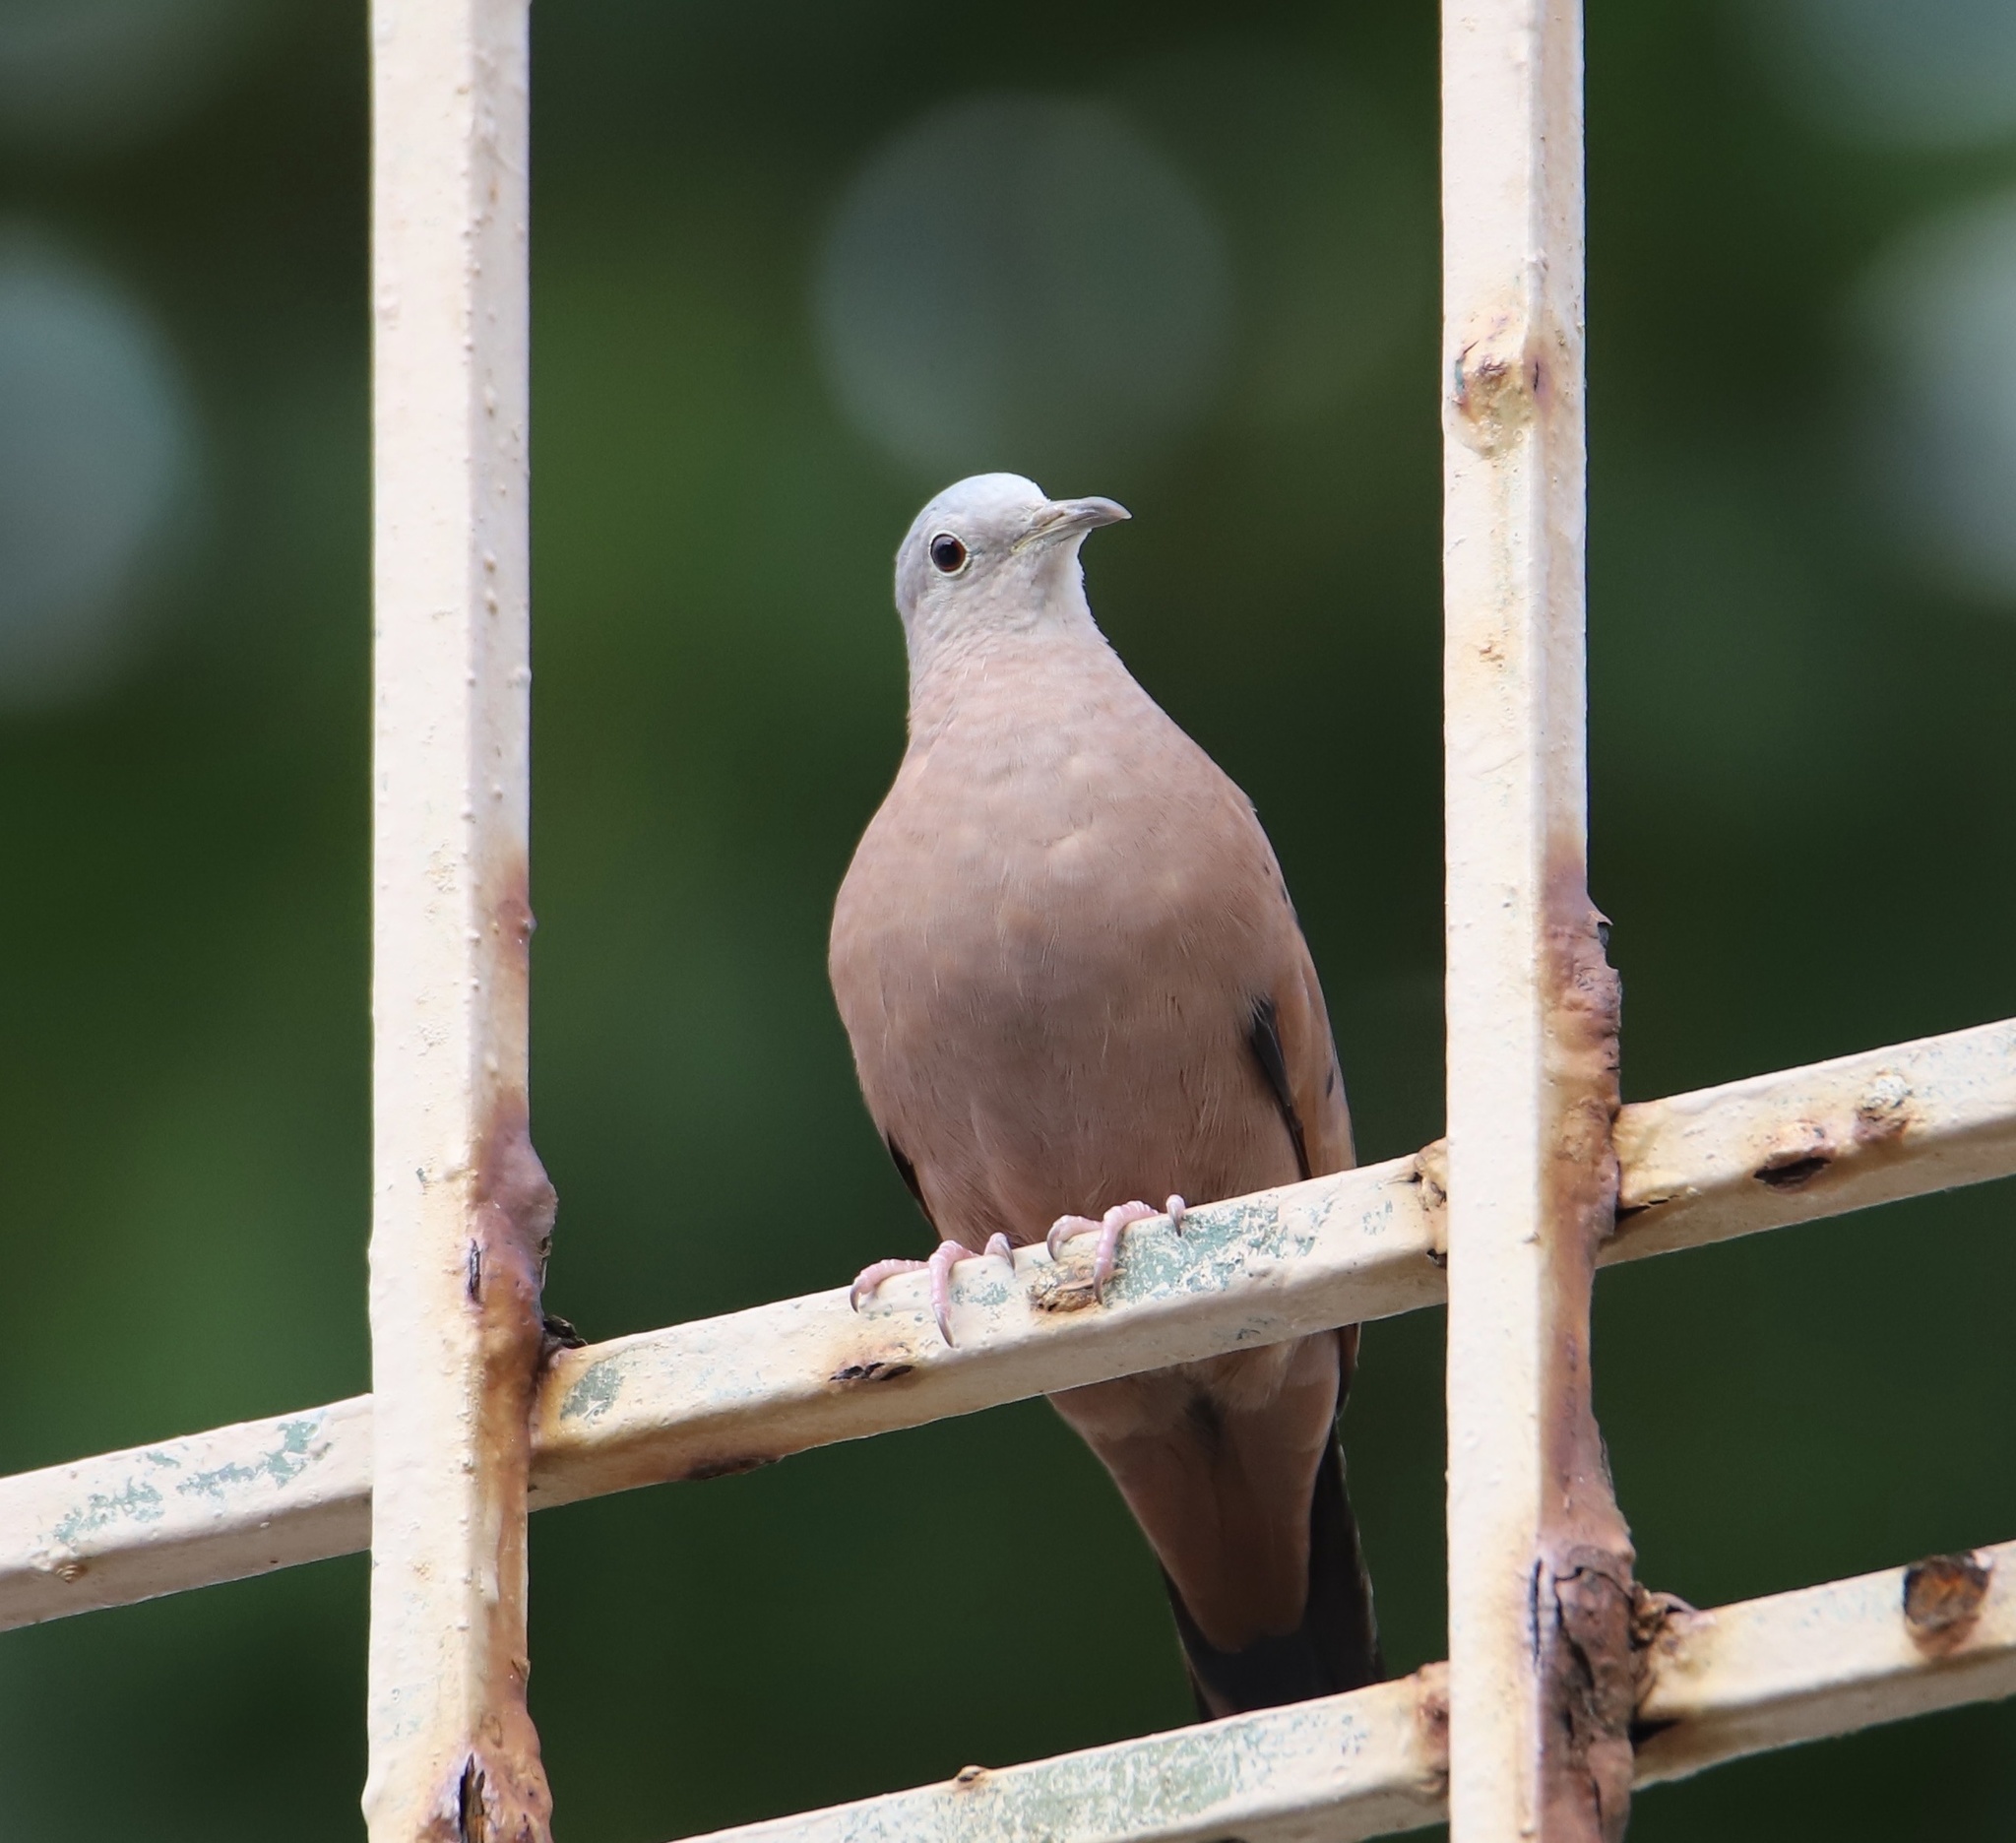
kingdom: Animalia
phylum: Chordata
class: Aves
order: Columbiformes
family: Columbidae
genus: Columbina
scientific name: Columbina talpacoti
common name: Ruddy ground dove
